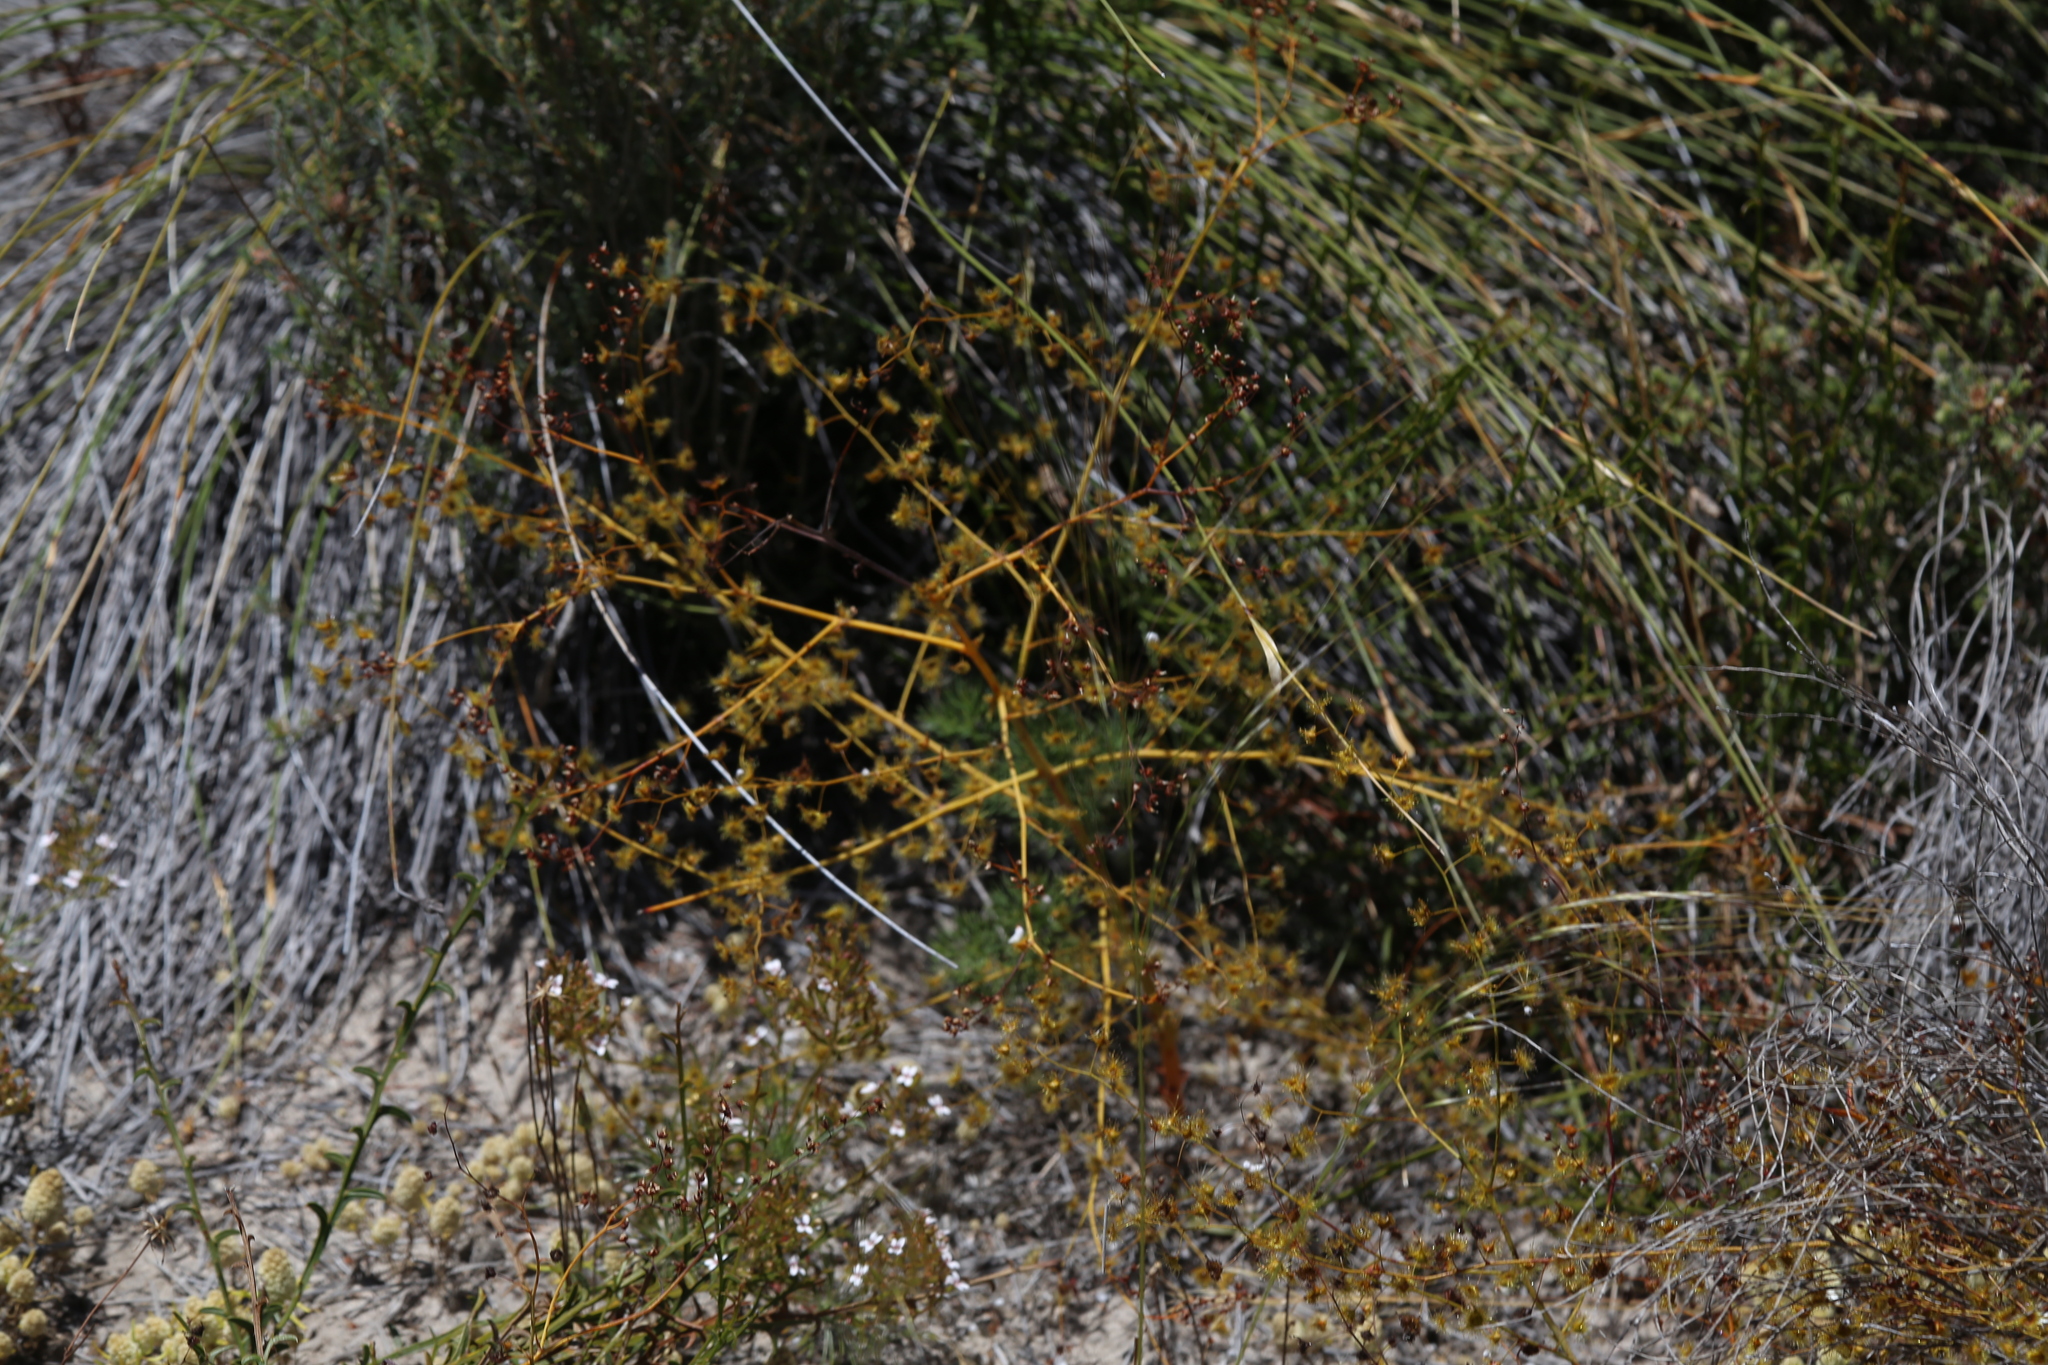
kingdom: Plantae
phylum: Tracheophyta
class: Magnoliopsida
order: Caryophyllales
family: Droseraceae
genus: Drosera
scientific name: Drosera gigantea
